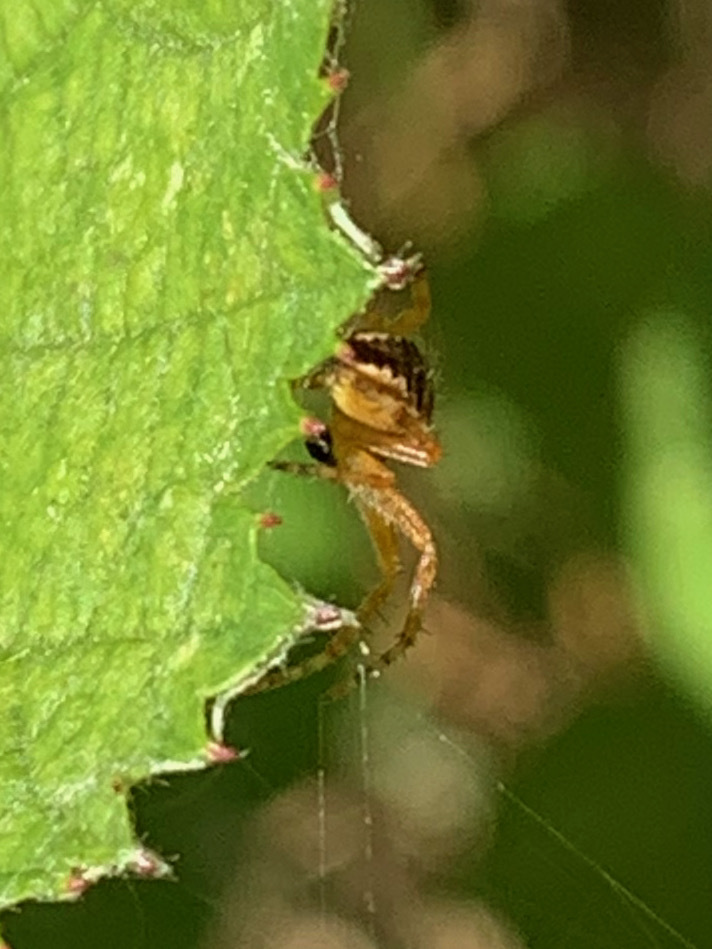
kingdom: Animalia
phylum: Arthropoda
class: Arachnida
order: Araneae
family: Araneidae
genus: Araneus
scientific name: Araneus diadematus
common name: Cross orbweaver
